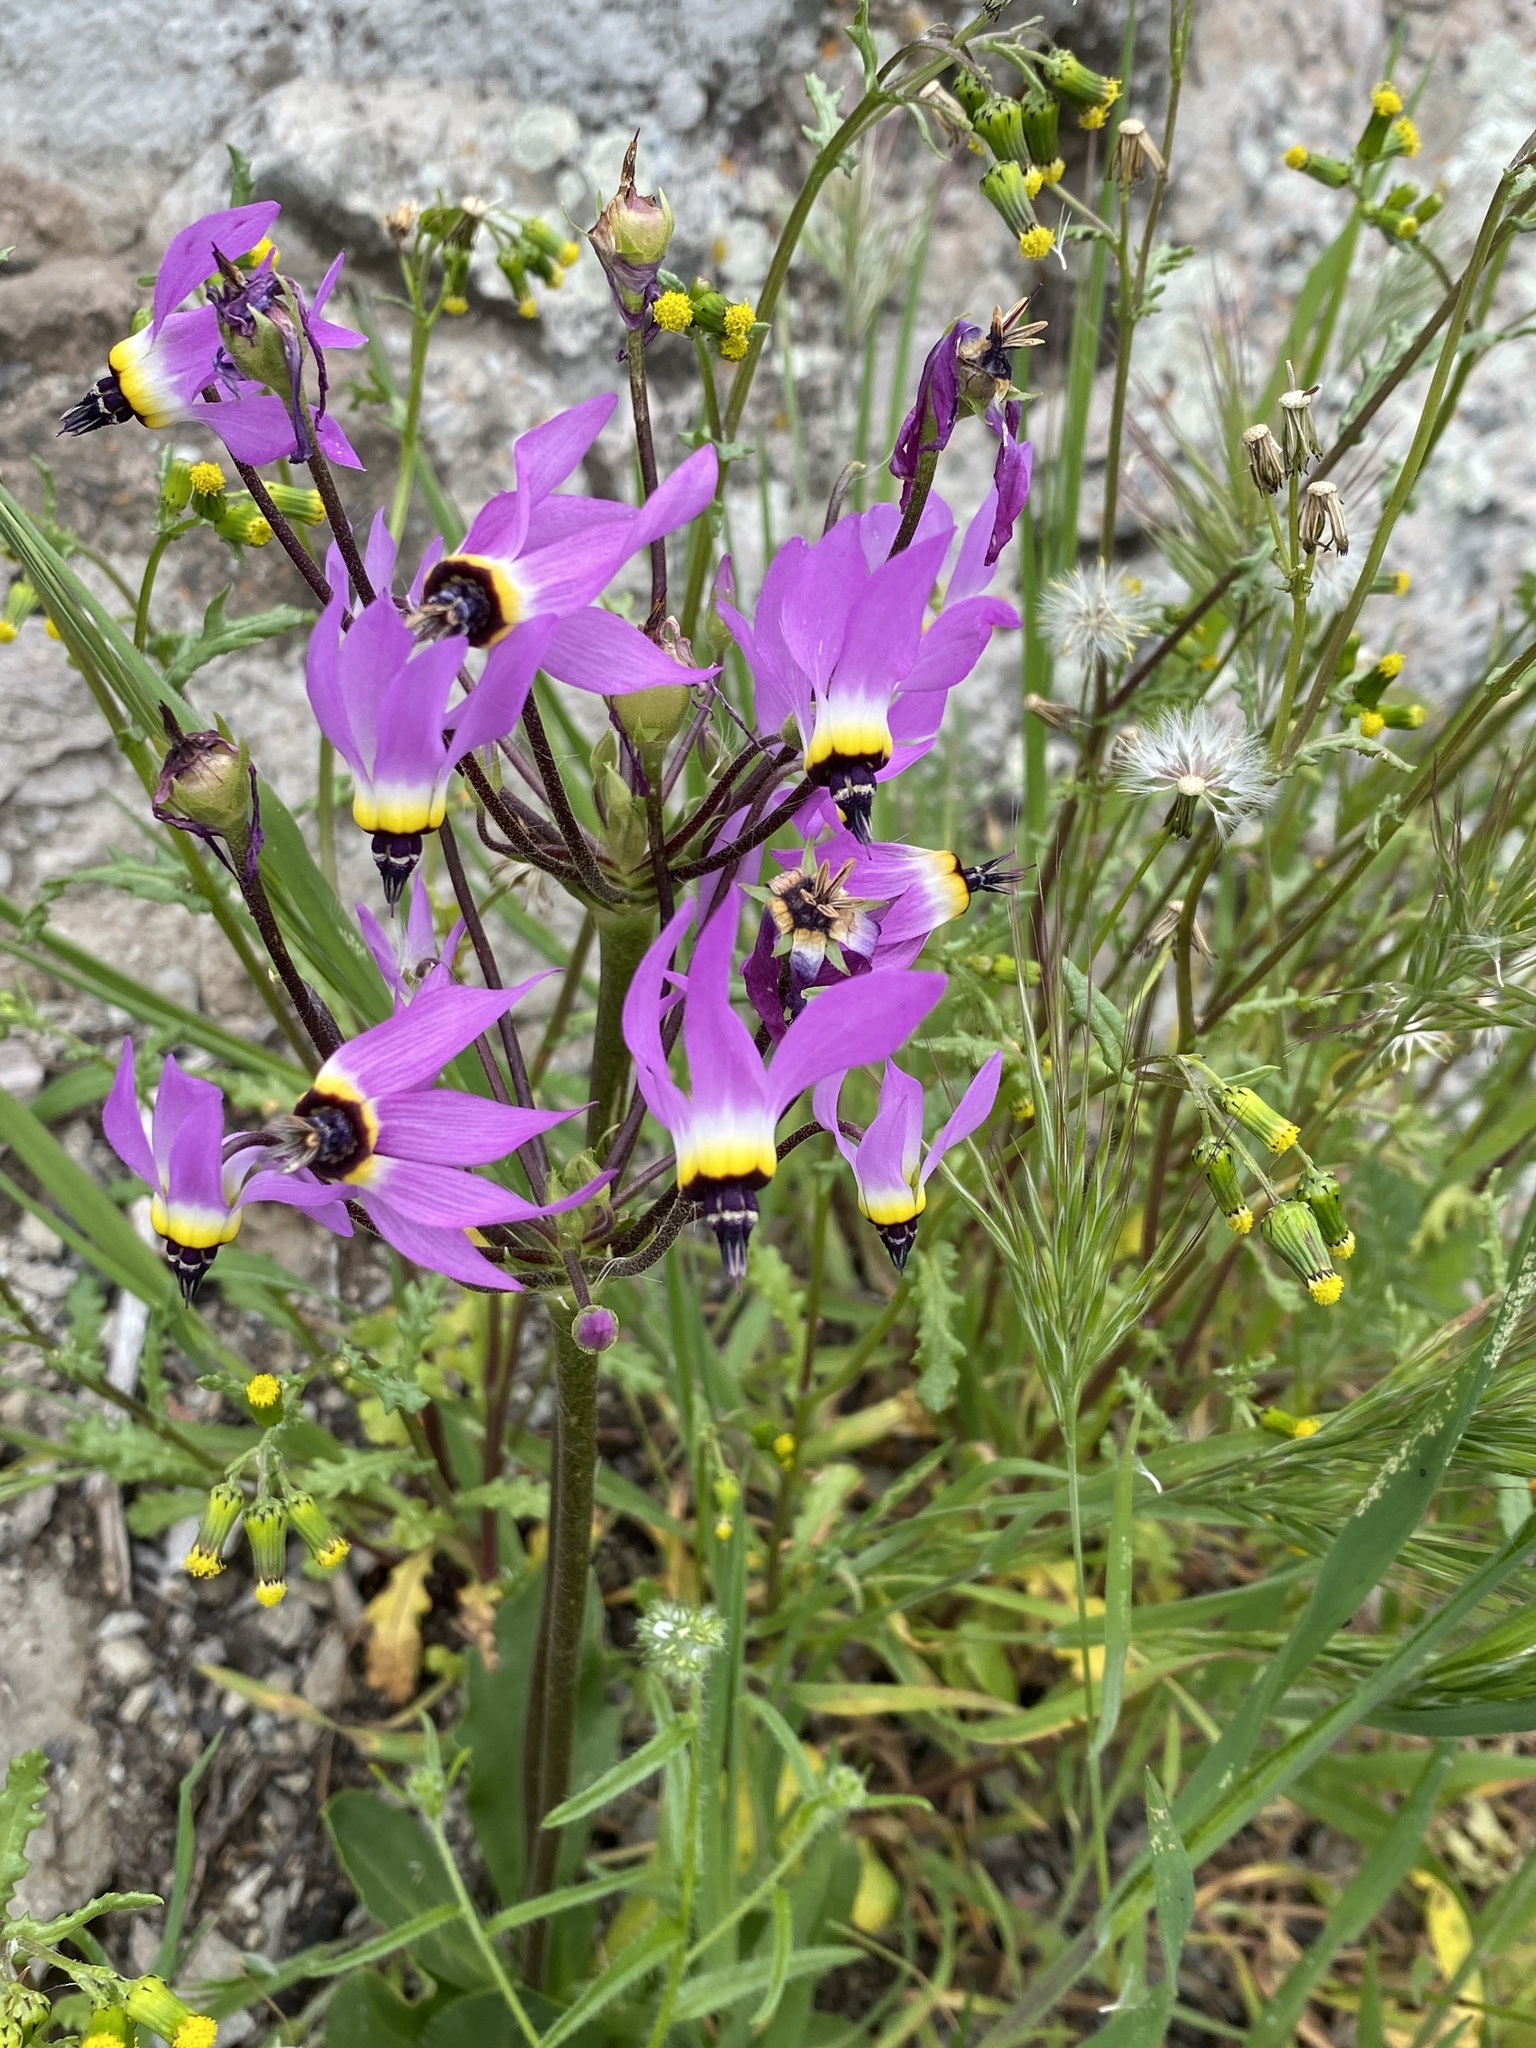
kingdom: Plantae
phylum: Tracheophyta
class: Magnoliopsida
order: Ericales
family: Primulaceae
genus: Dodecatheon
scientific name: Dodecatheon clevelandii
